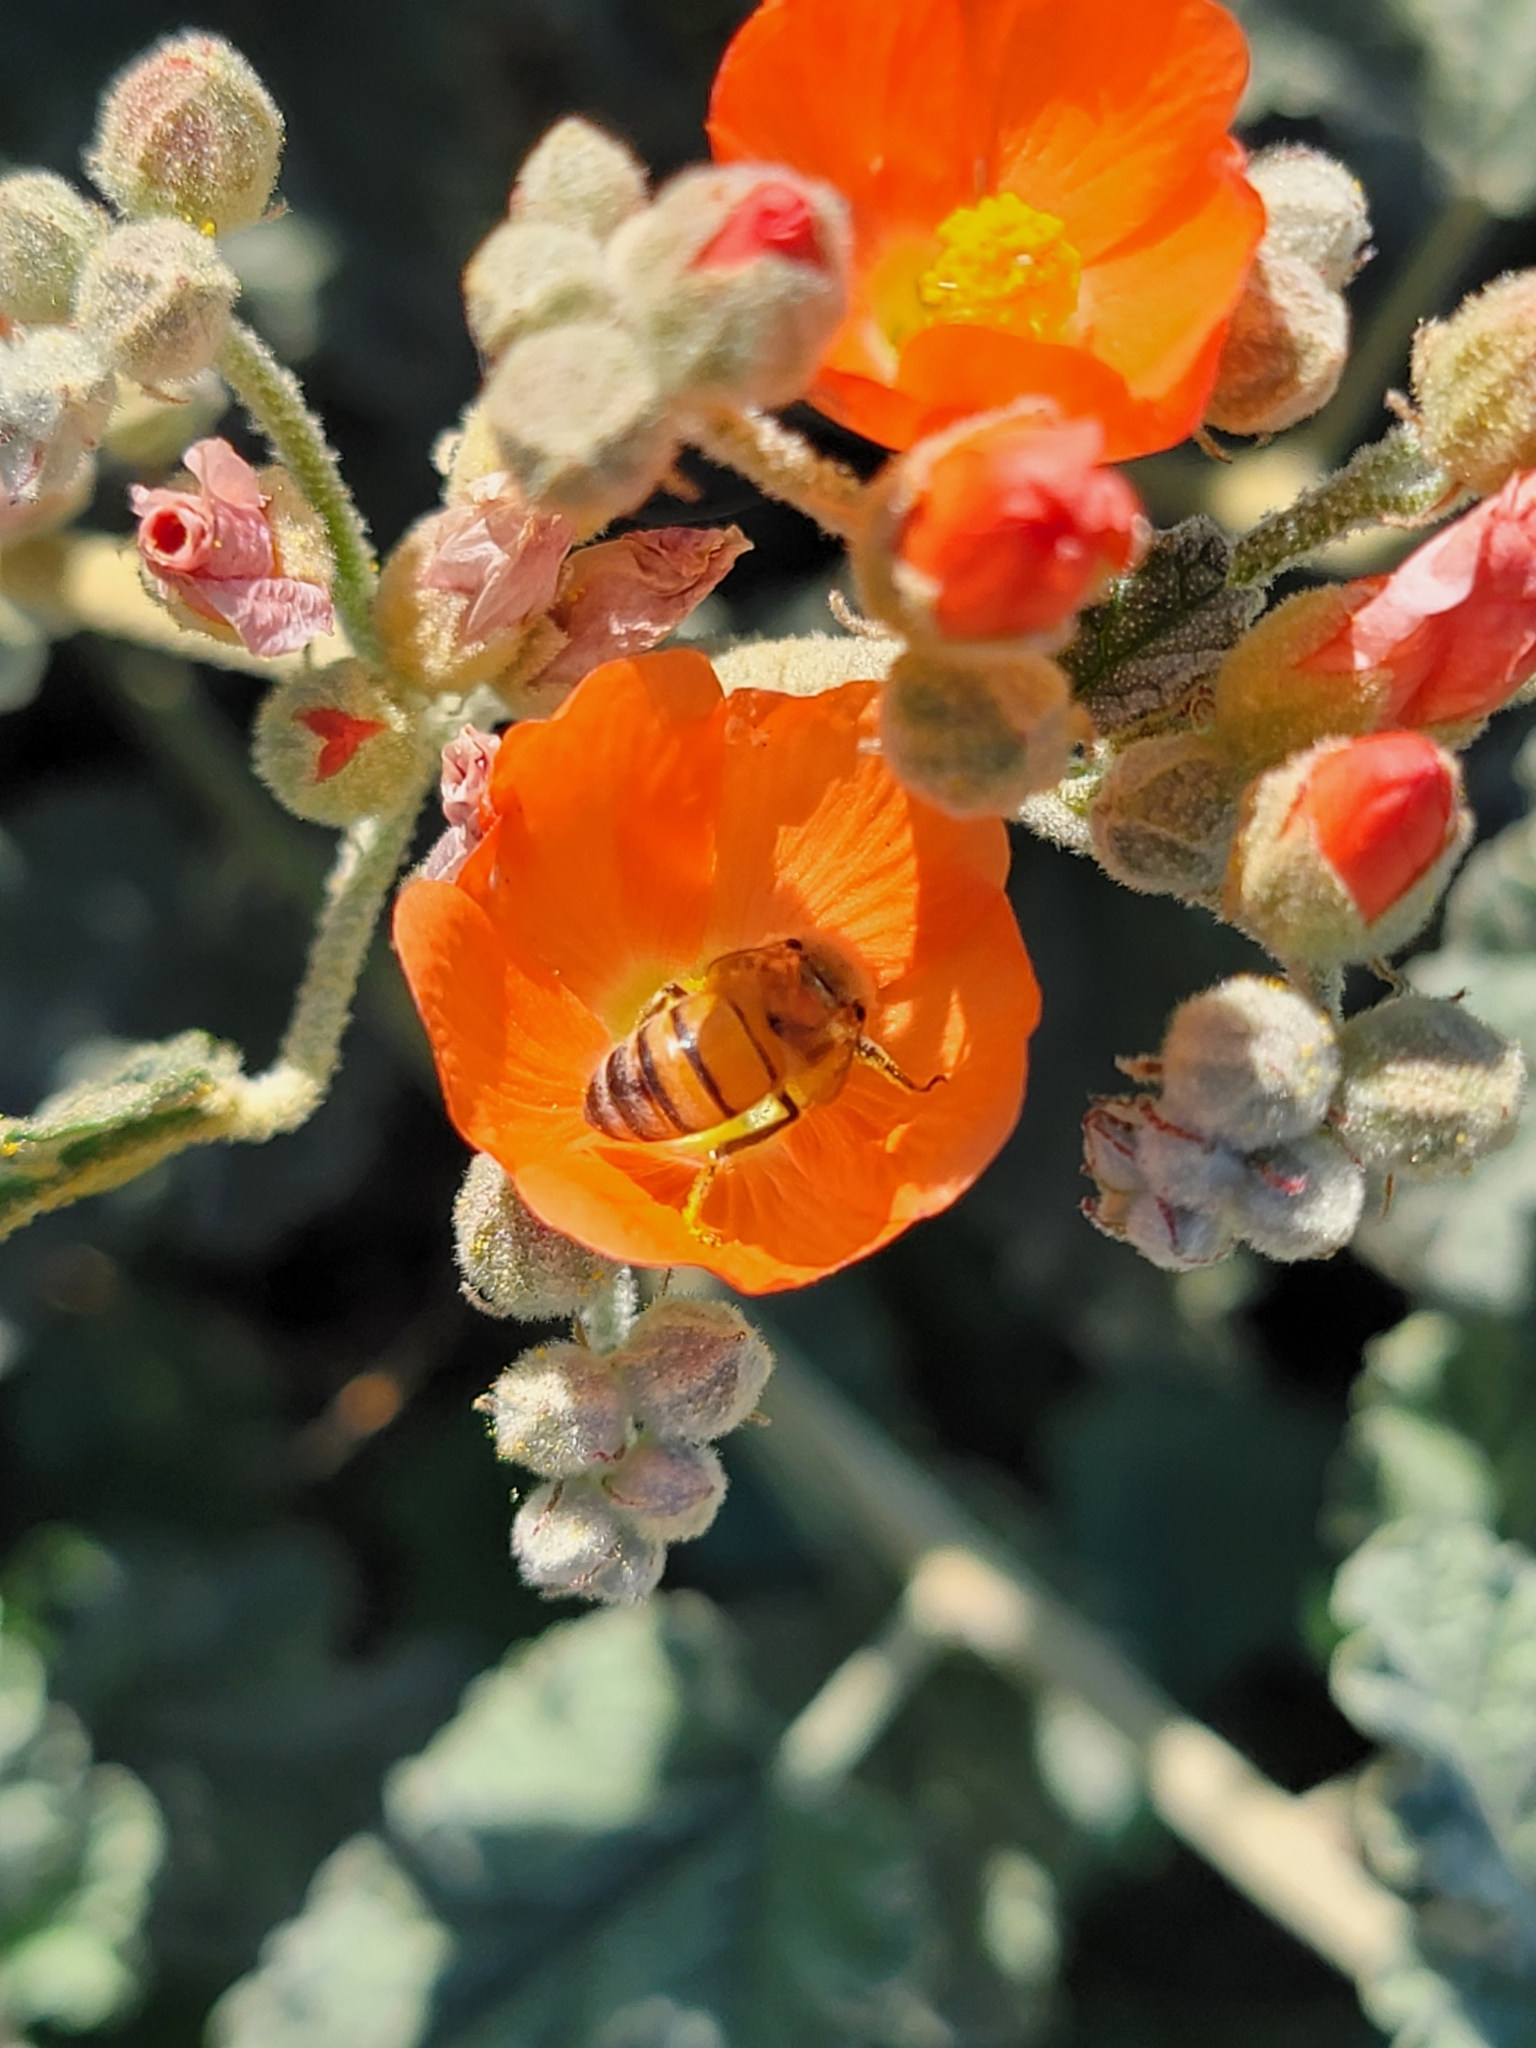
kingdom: Animalia
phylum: Arthropoda
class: Insecta
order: Hymenoptera
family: Apidae
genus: Apis
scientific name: Apis mellifera
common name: Honey bee
